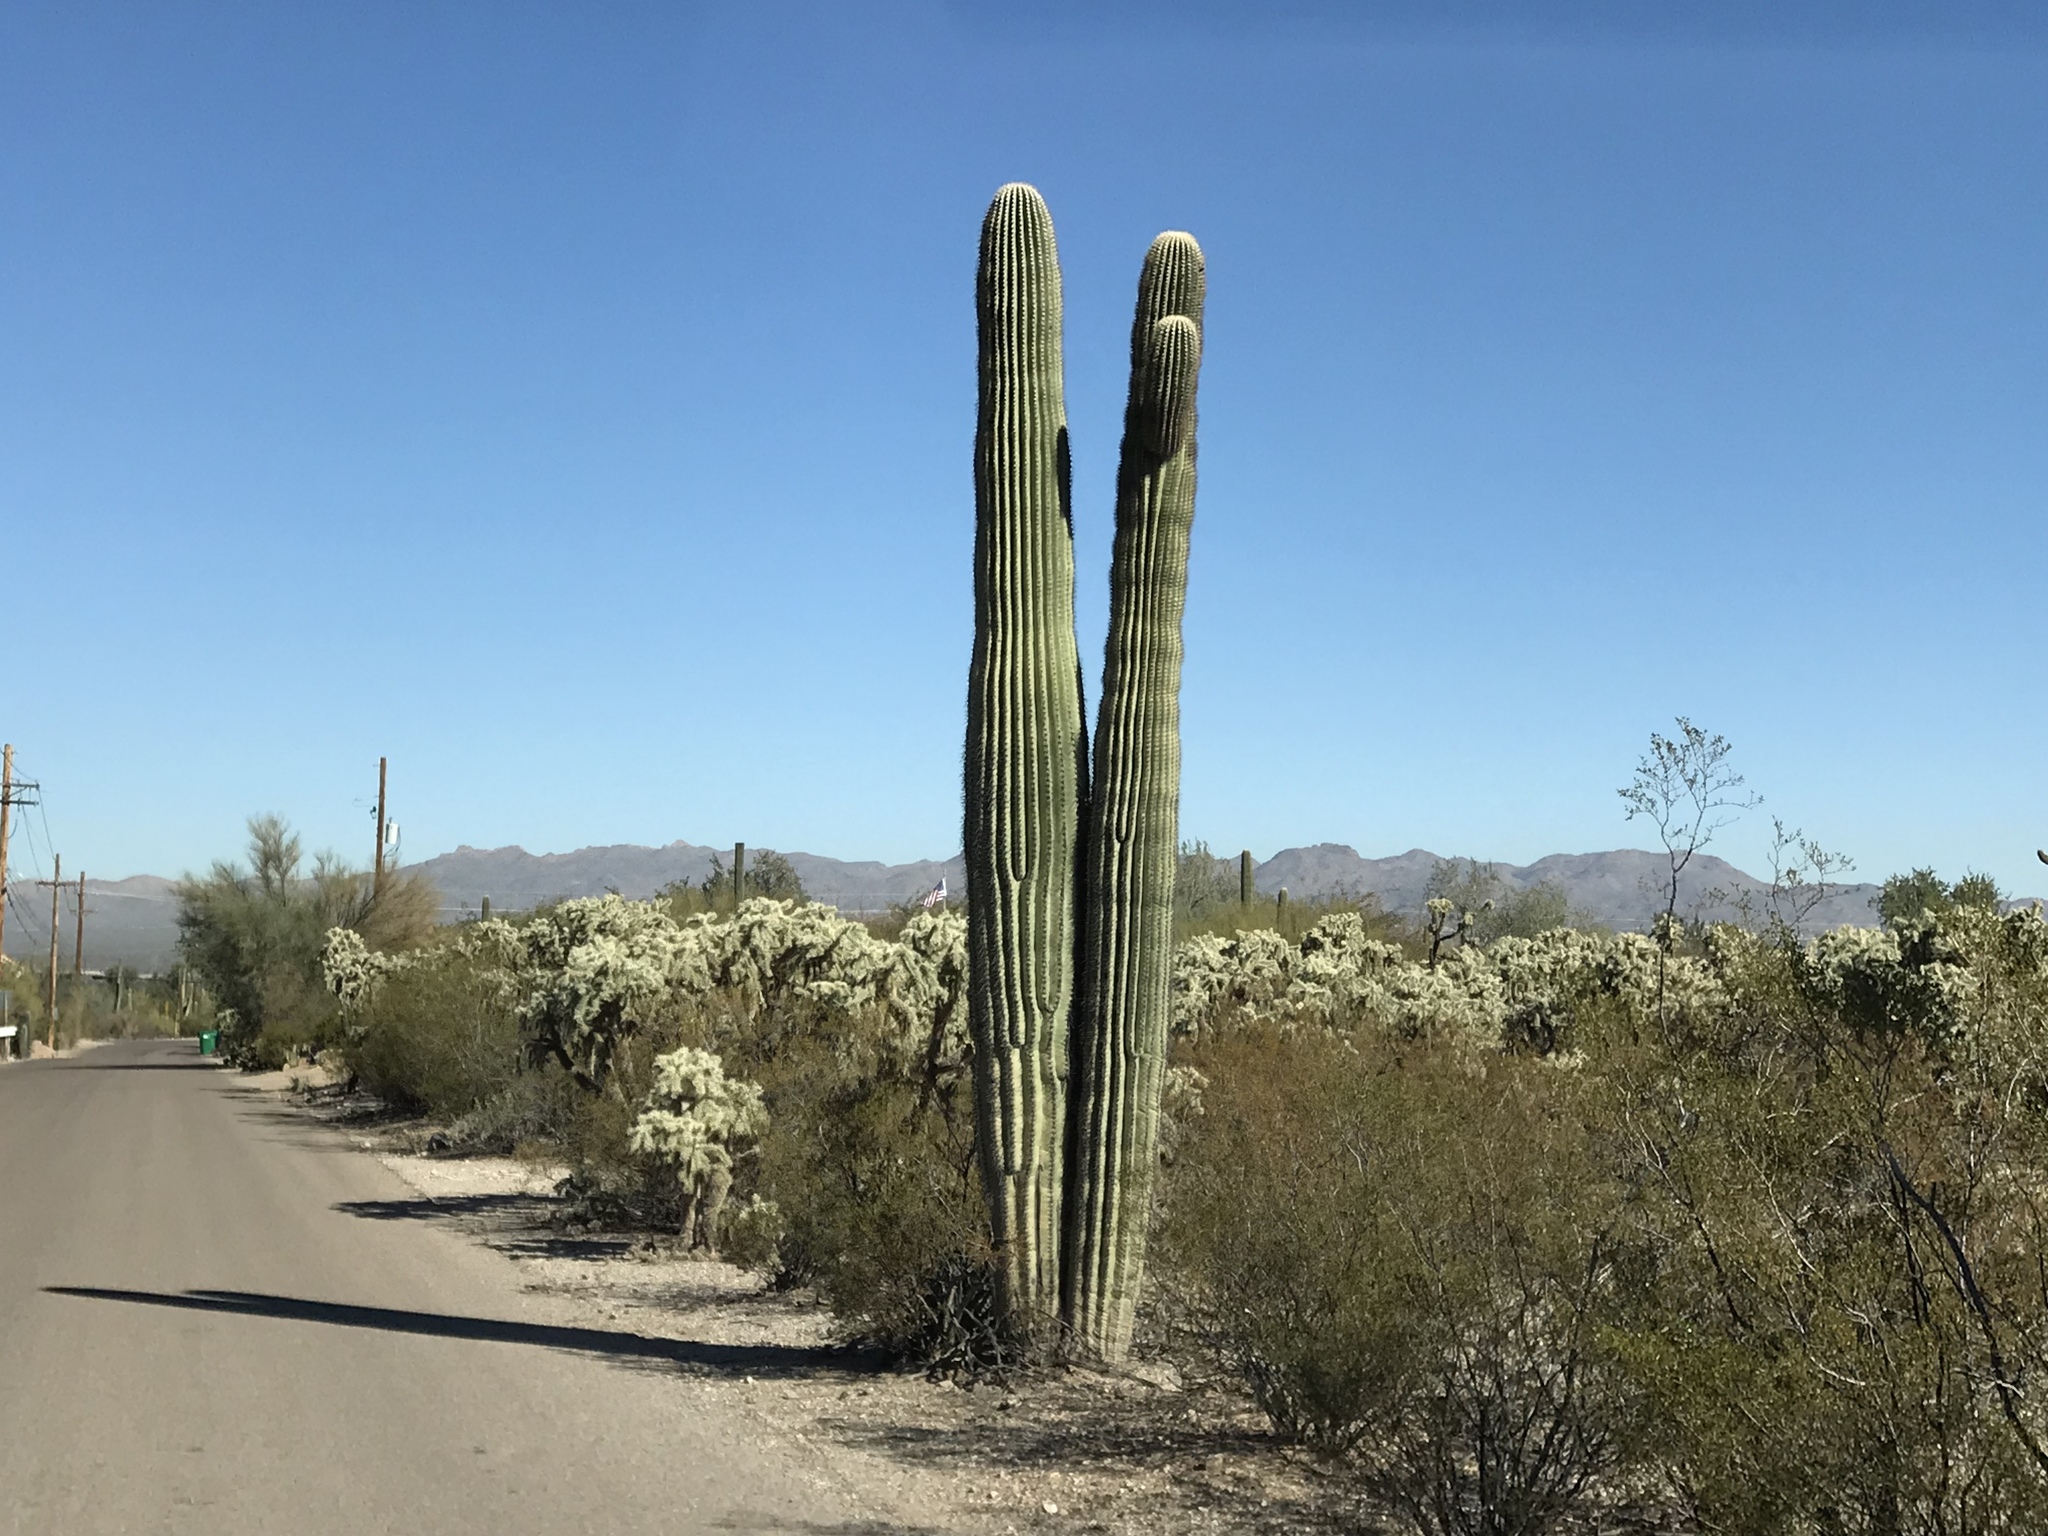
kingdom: Plantae
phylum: Tracheophyta
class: Magnoliopsida
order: Caryophyllales
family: Cactaceae
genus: Carnegiea
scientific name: Carnegiea gigantea
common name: Saguaro
